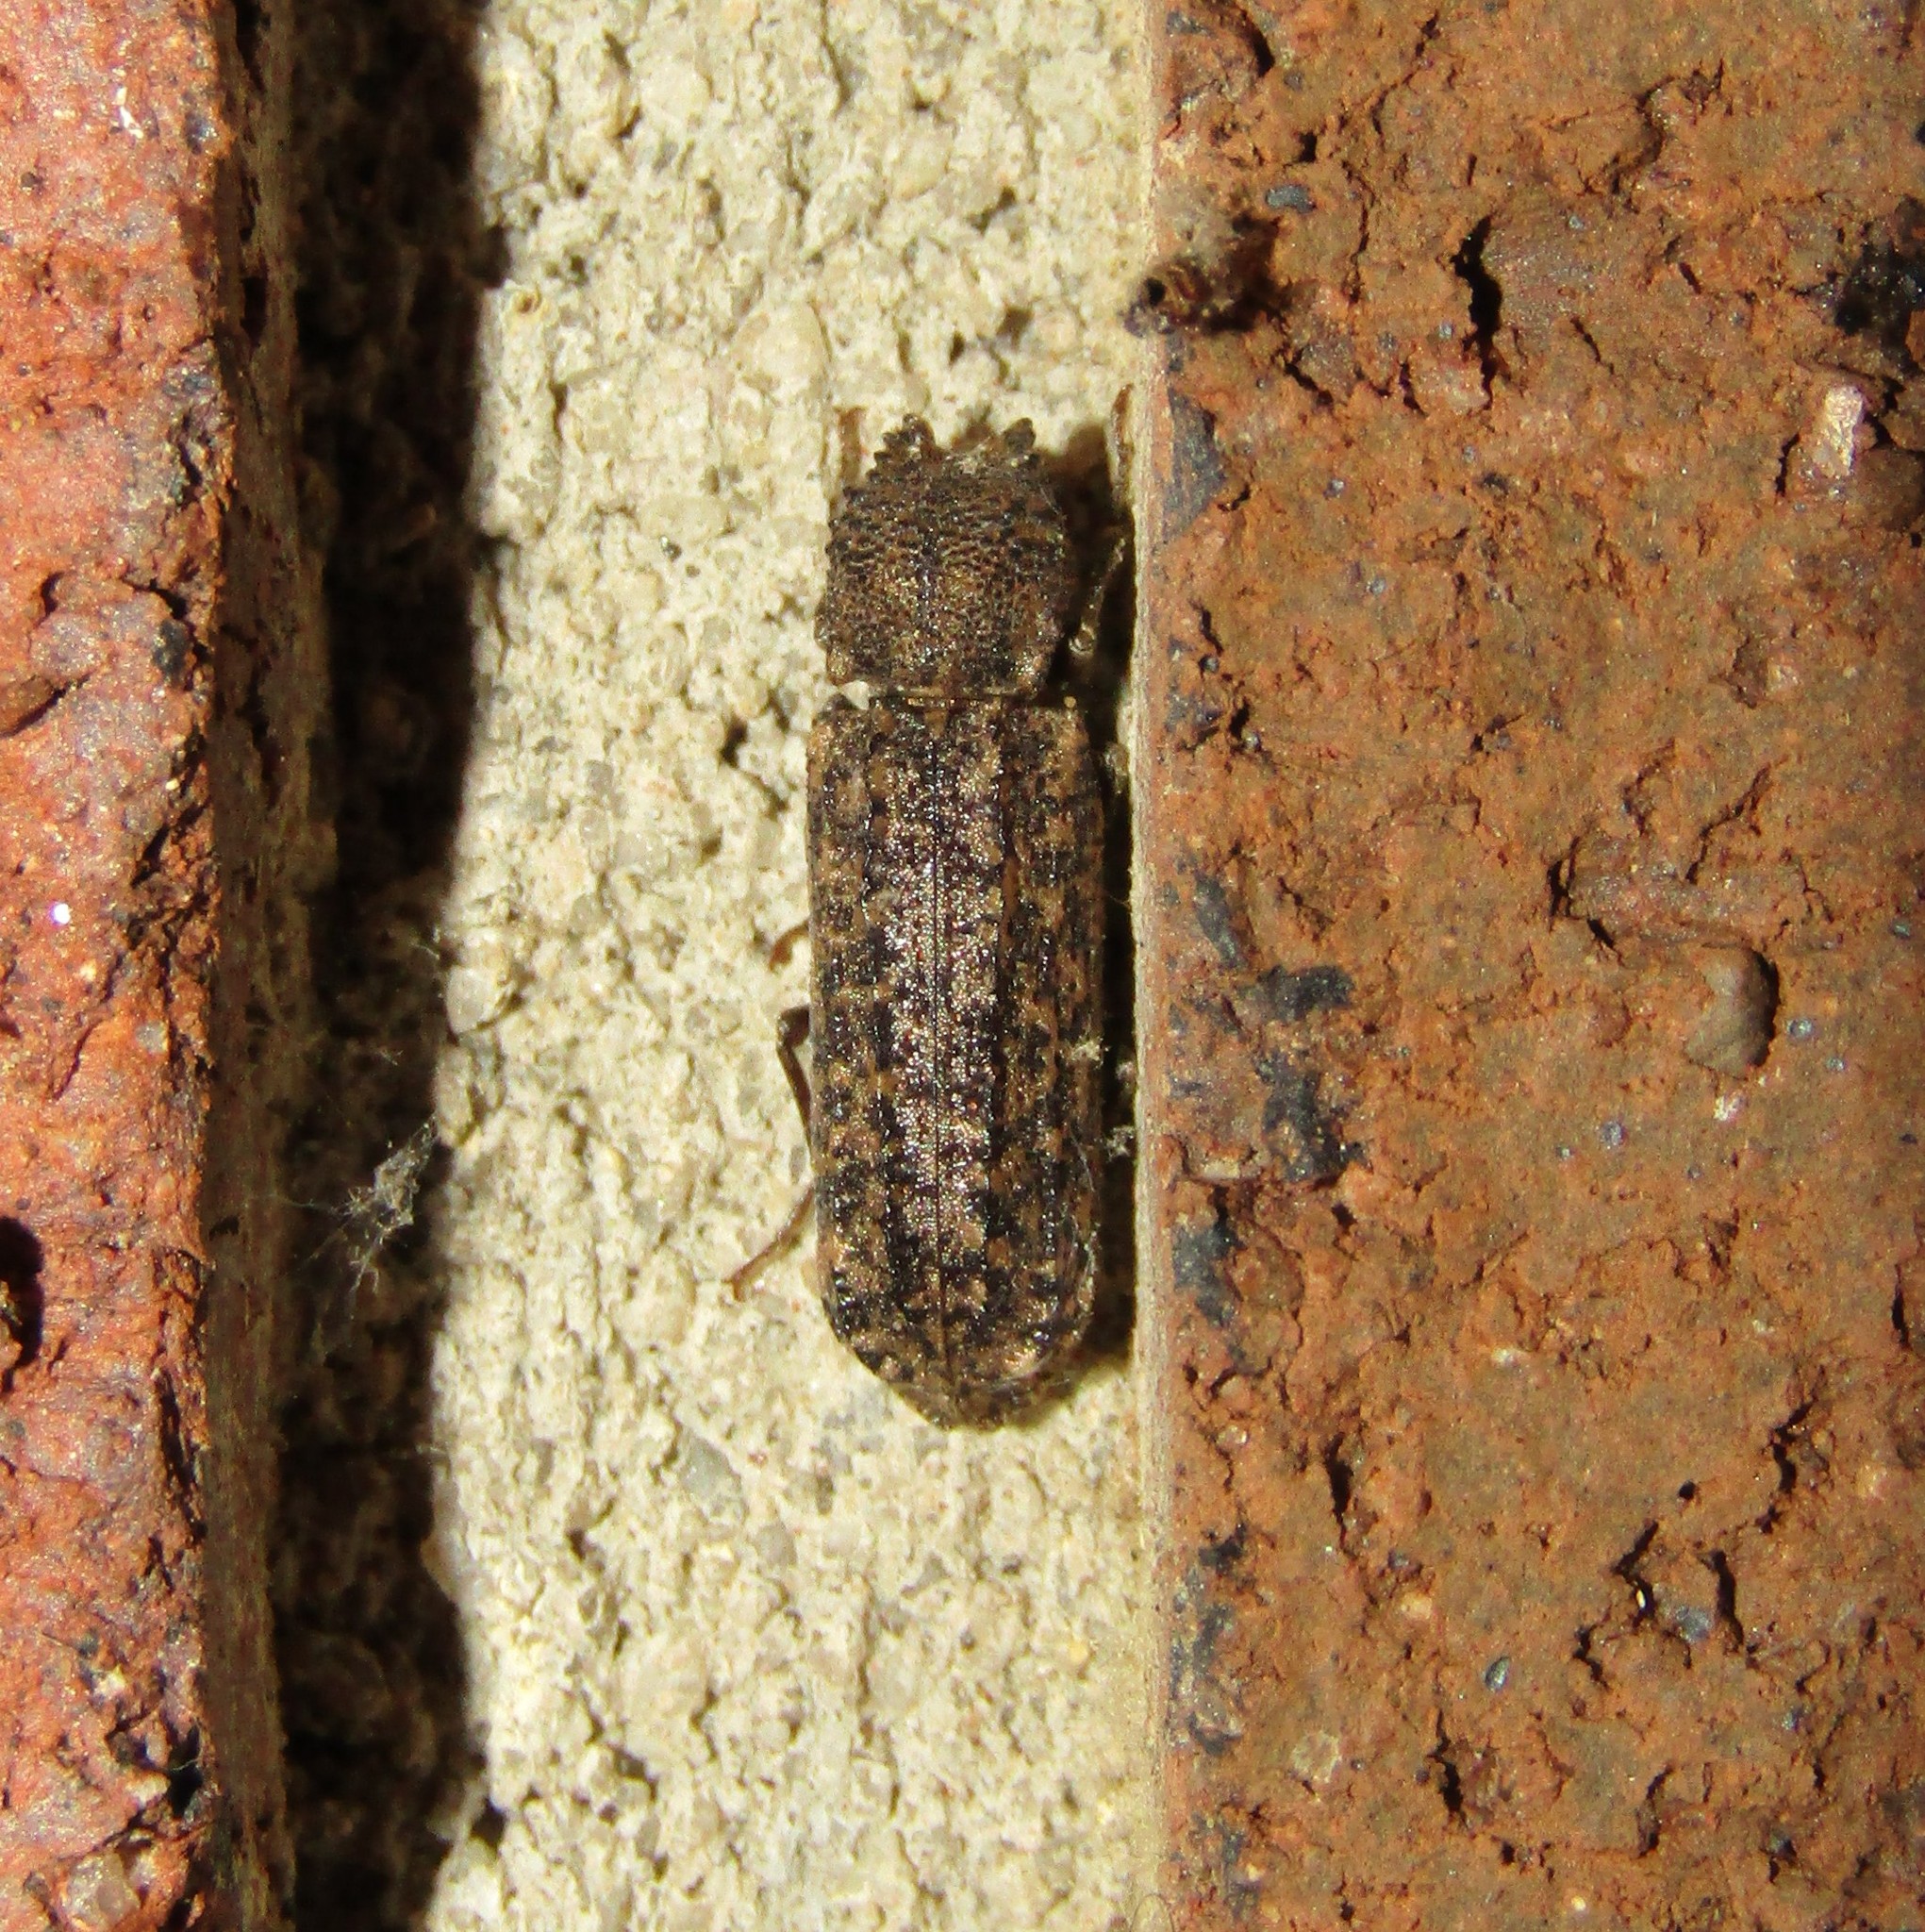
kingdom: Animalia
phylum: Arthropoda
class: Insecta
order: Coleoptera
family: Bostrichidae
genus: Lichenophanes
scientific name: Lichenophanes bicornis
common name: Two-horned powder-post beetle
